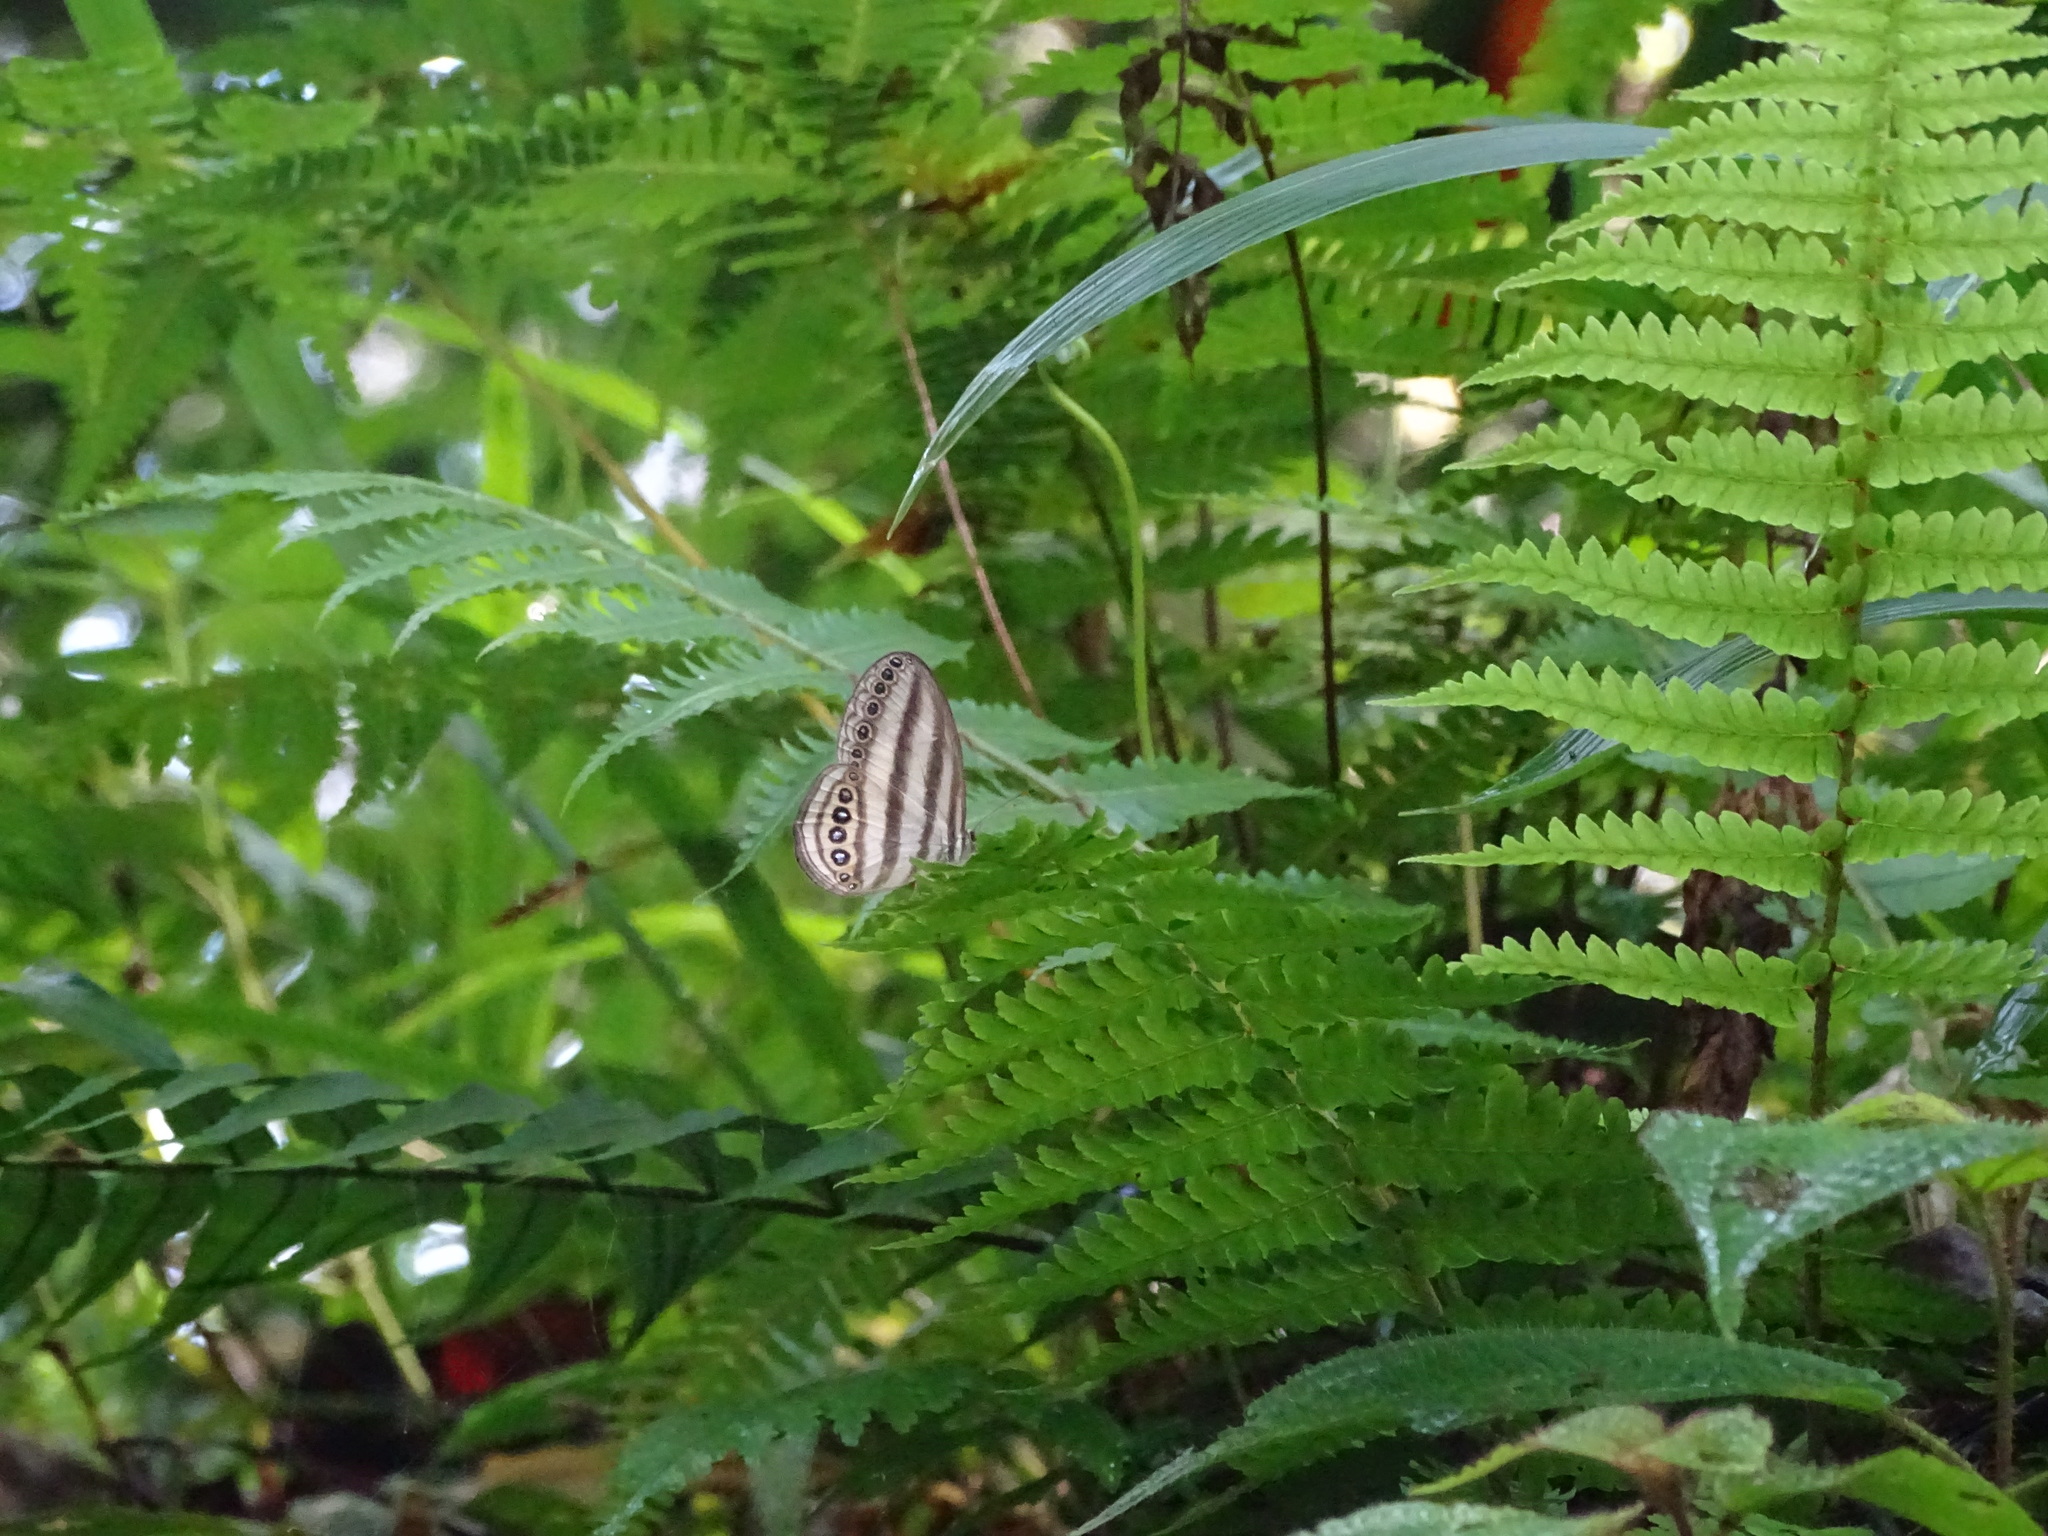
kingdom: Animalia
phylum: Arthropoda
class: Insecta
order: Lepidoptera
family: Nymphalidae
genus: Ragadia
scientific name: Ragadia makuta
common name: Striped ringlet
